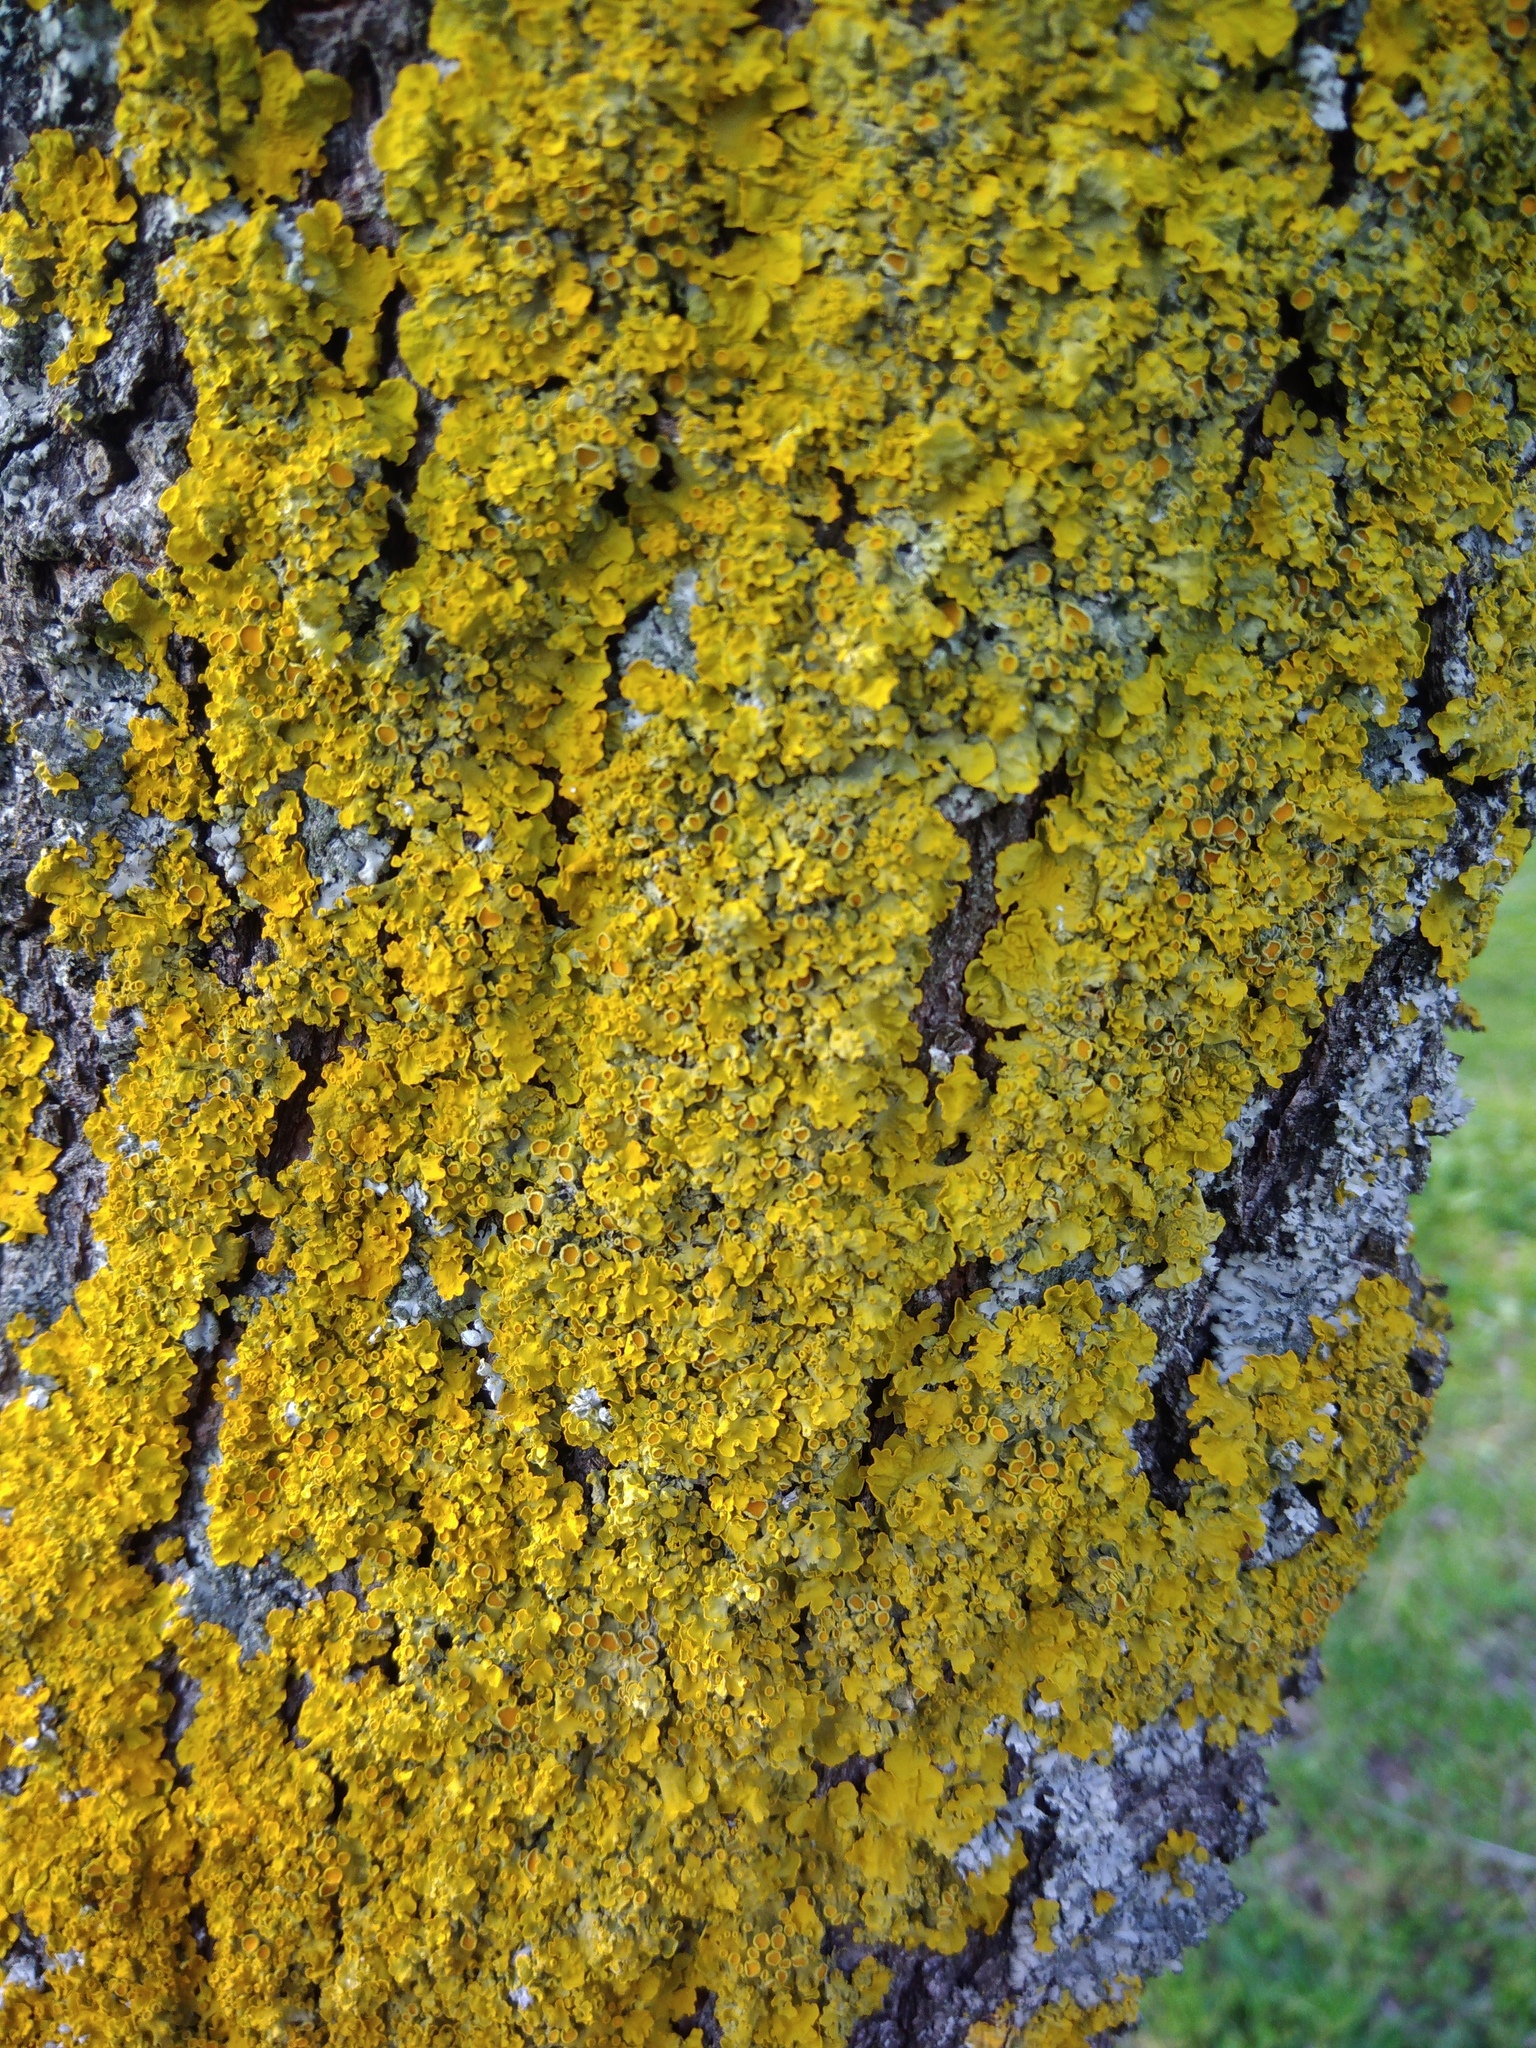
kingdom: Fungi
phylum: Ascomycota
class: Lecanoromycetes
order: Teloschistales
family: Teloschistaceae
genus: Xanthoria
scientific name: Xanthoria parietina
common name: Common orange lichen
